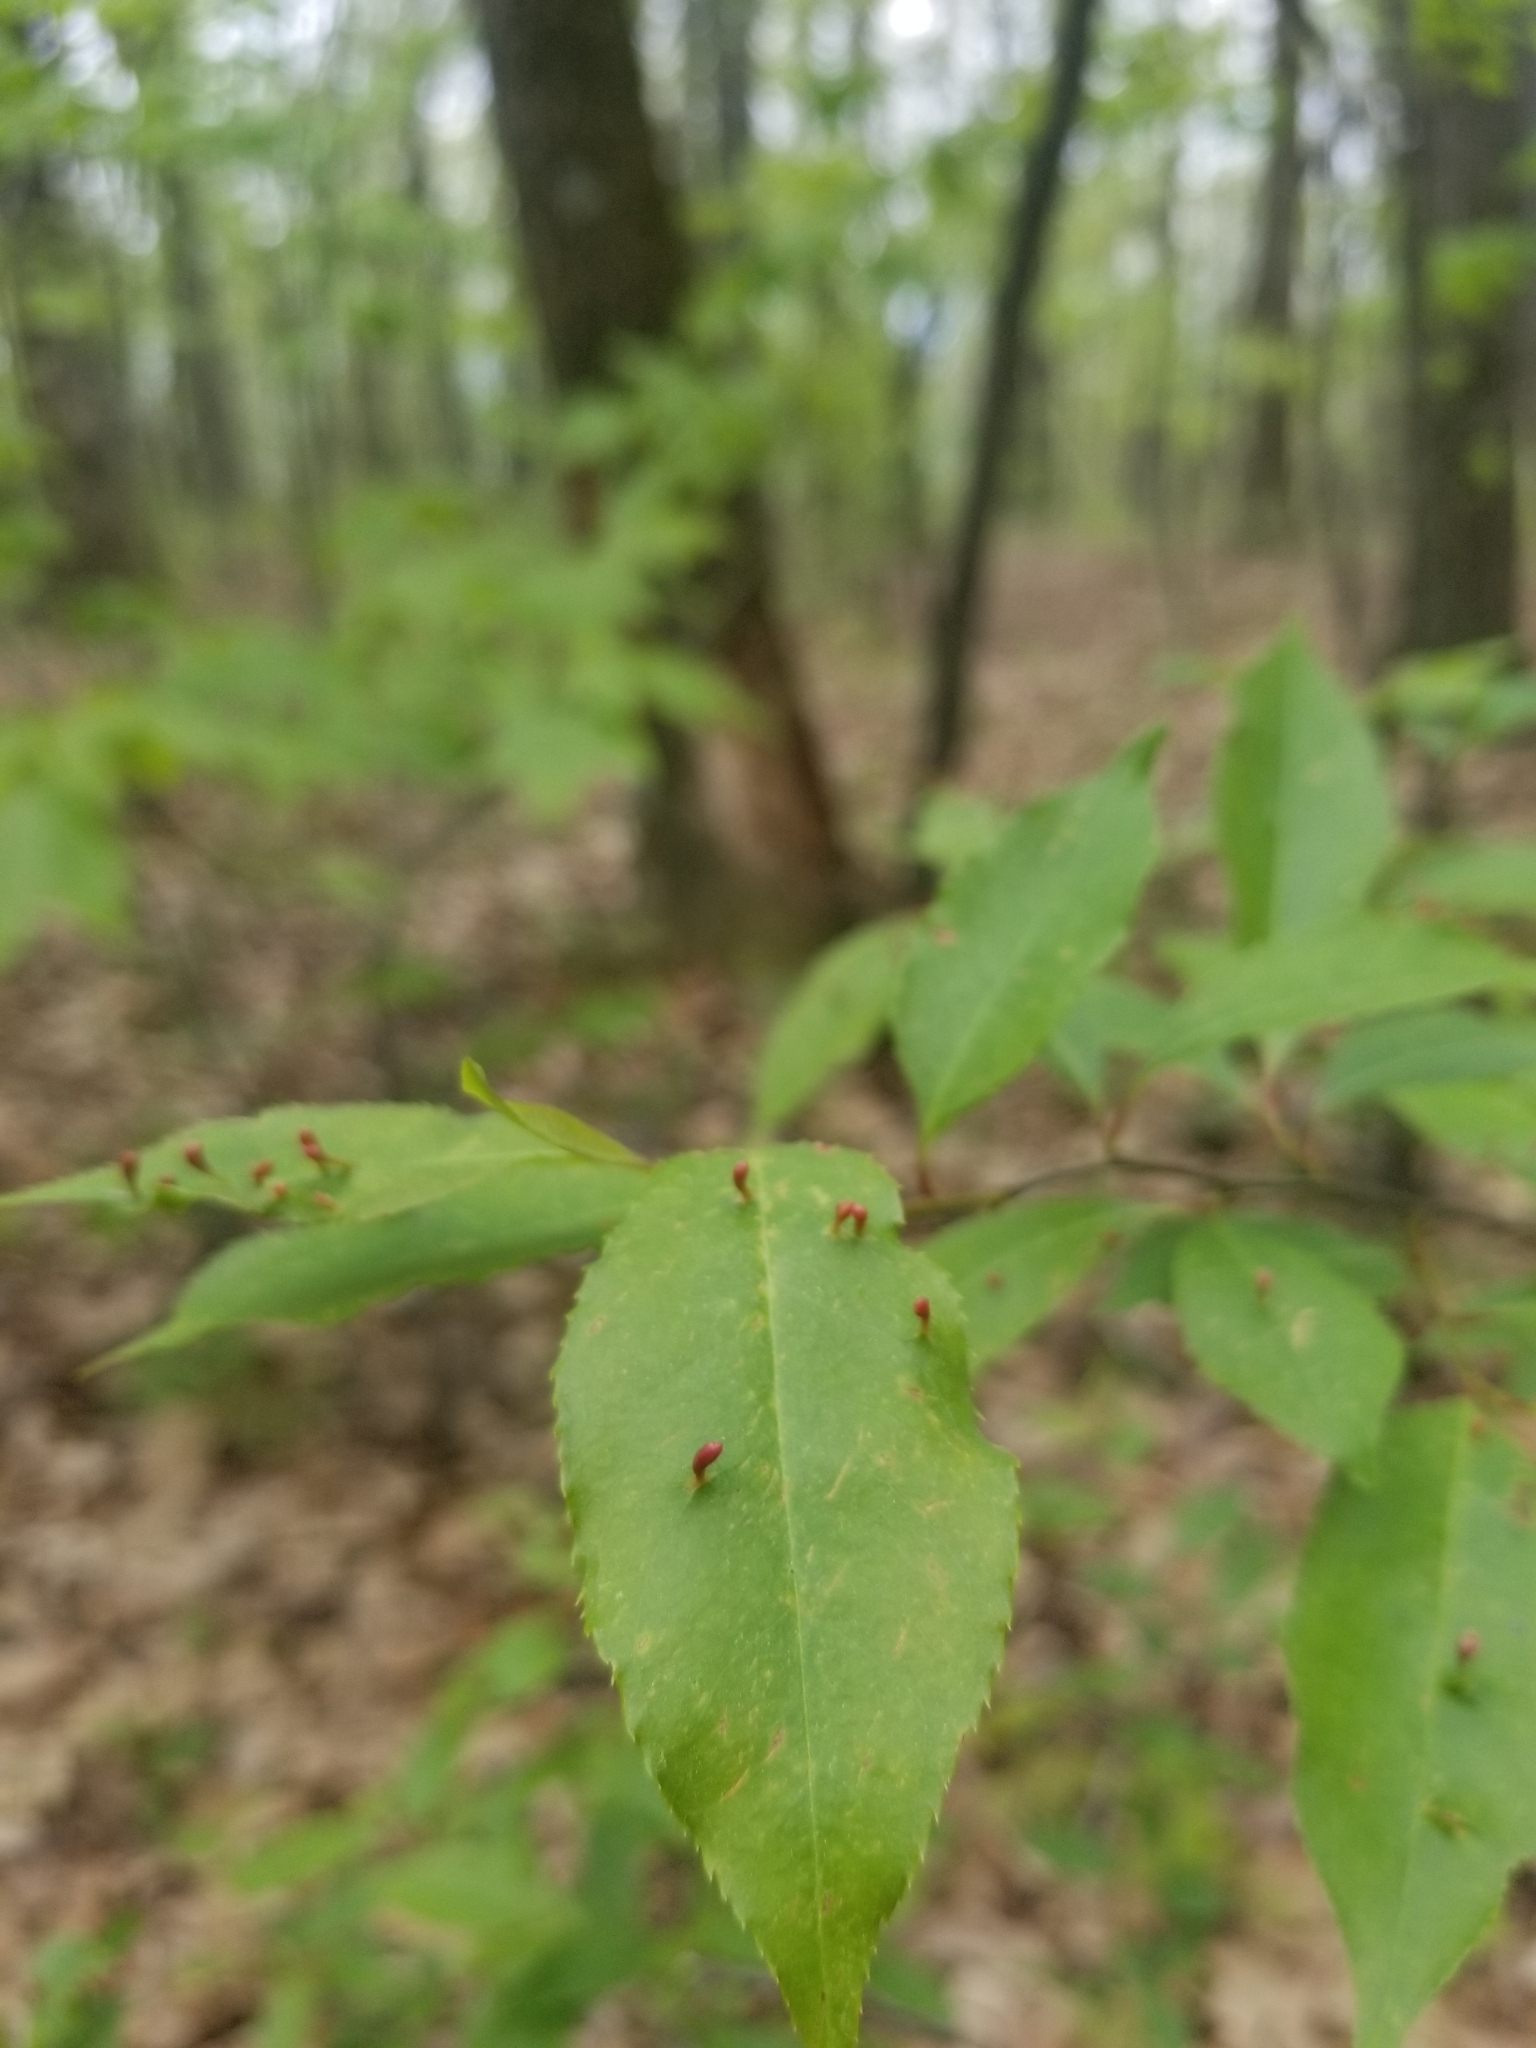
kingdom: Animalia
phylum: Arthropoda
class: Arachnida
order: Trombidiformes
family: Eriophyidae
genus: Eriophyes
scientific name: Eriophyes
